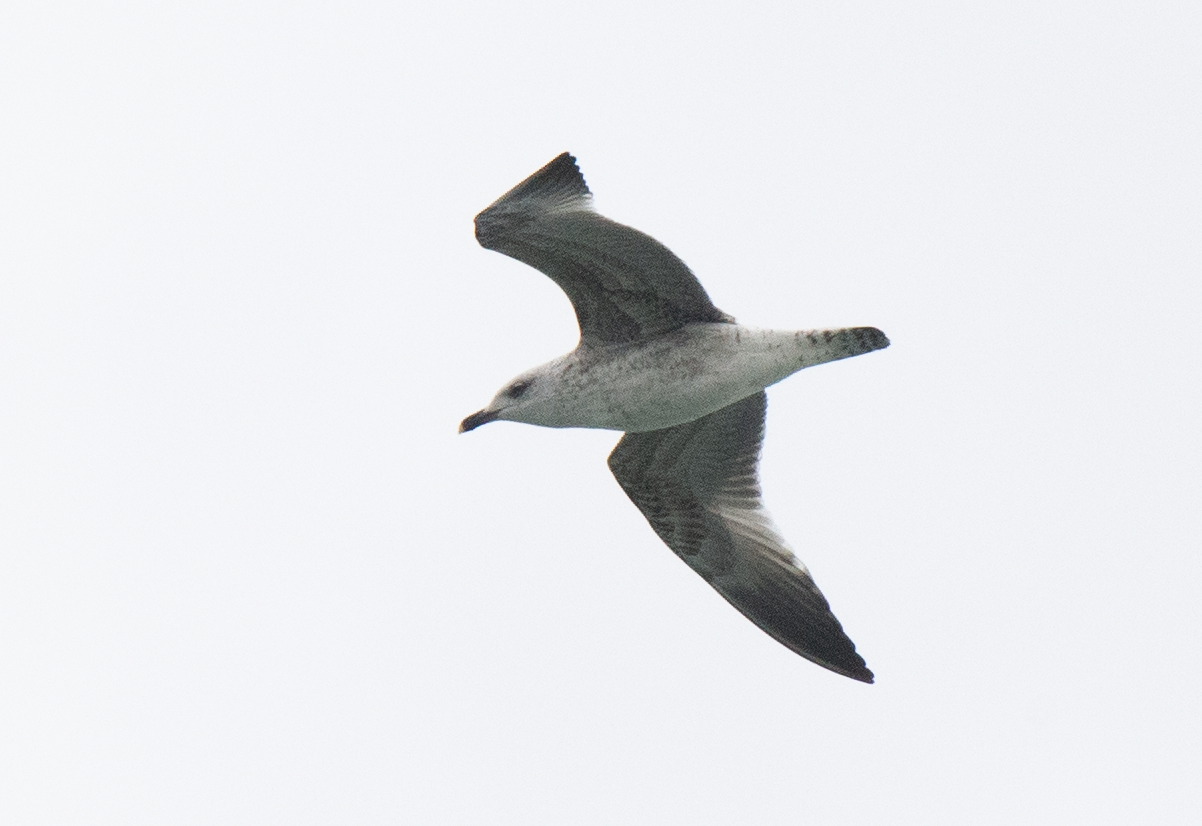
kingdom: Animalia
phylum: Chordata
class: Aves
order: Charadriiformes
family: Laridae
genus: Larus
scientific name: Larus michahellis
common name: Yellow-legged gull
